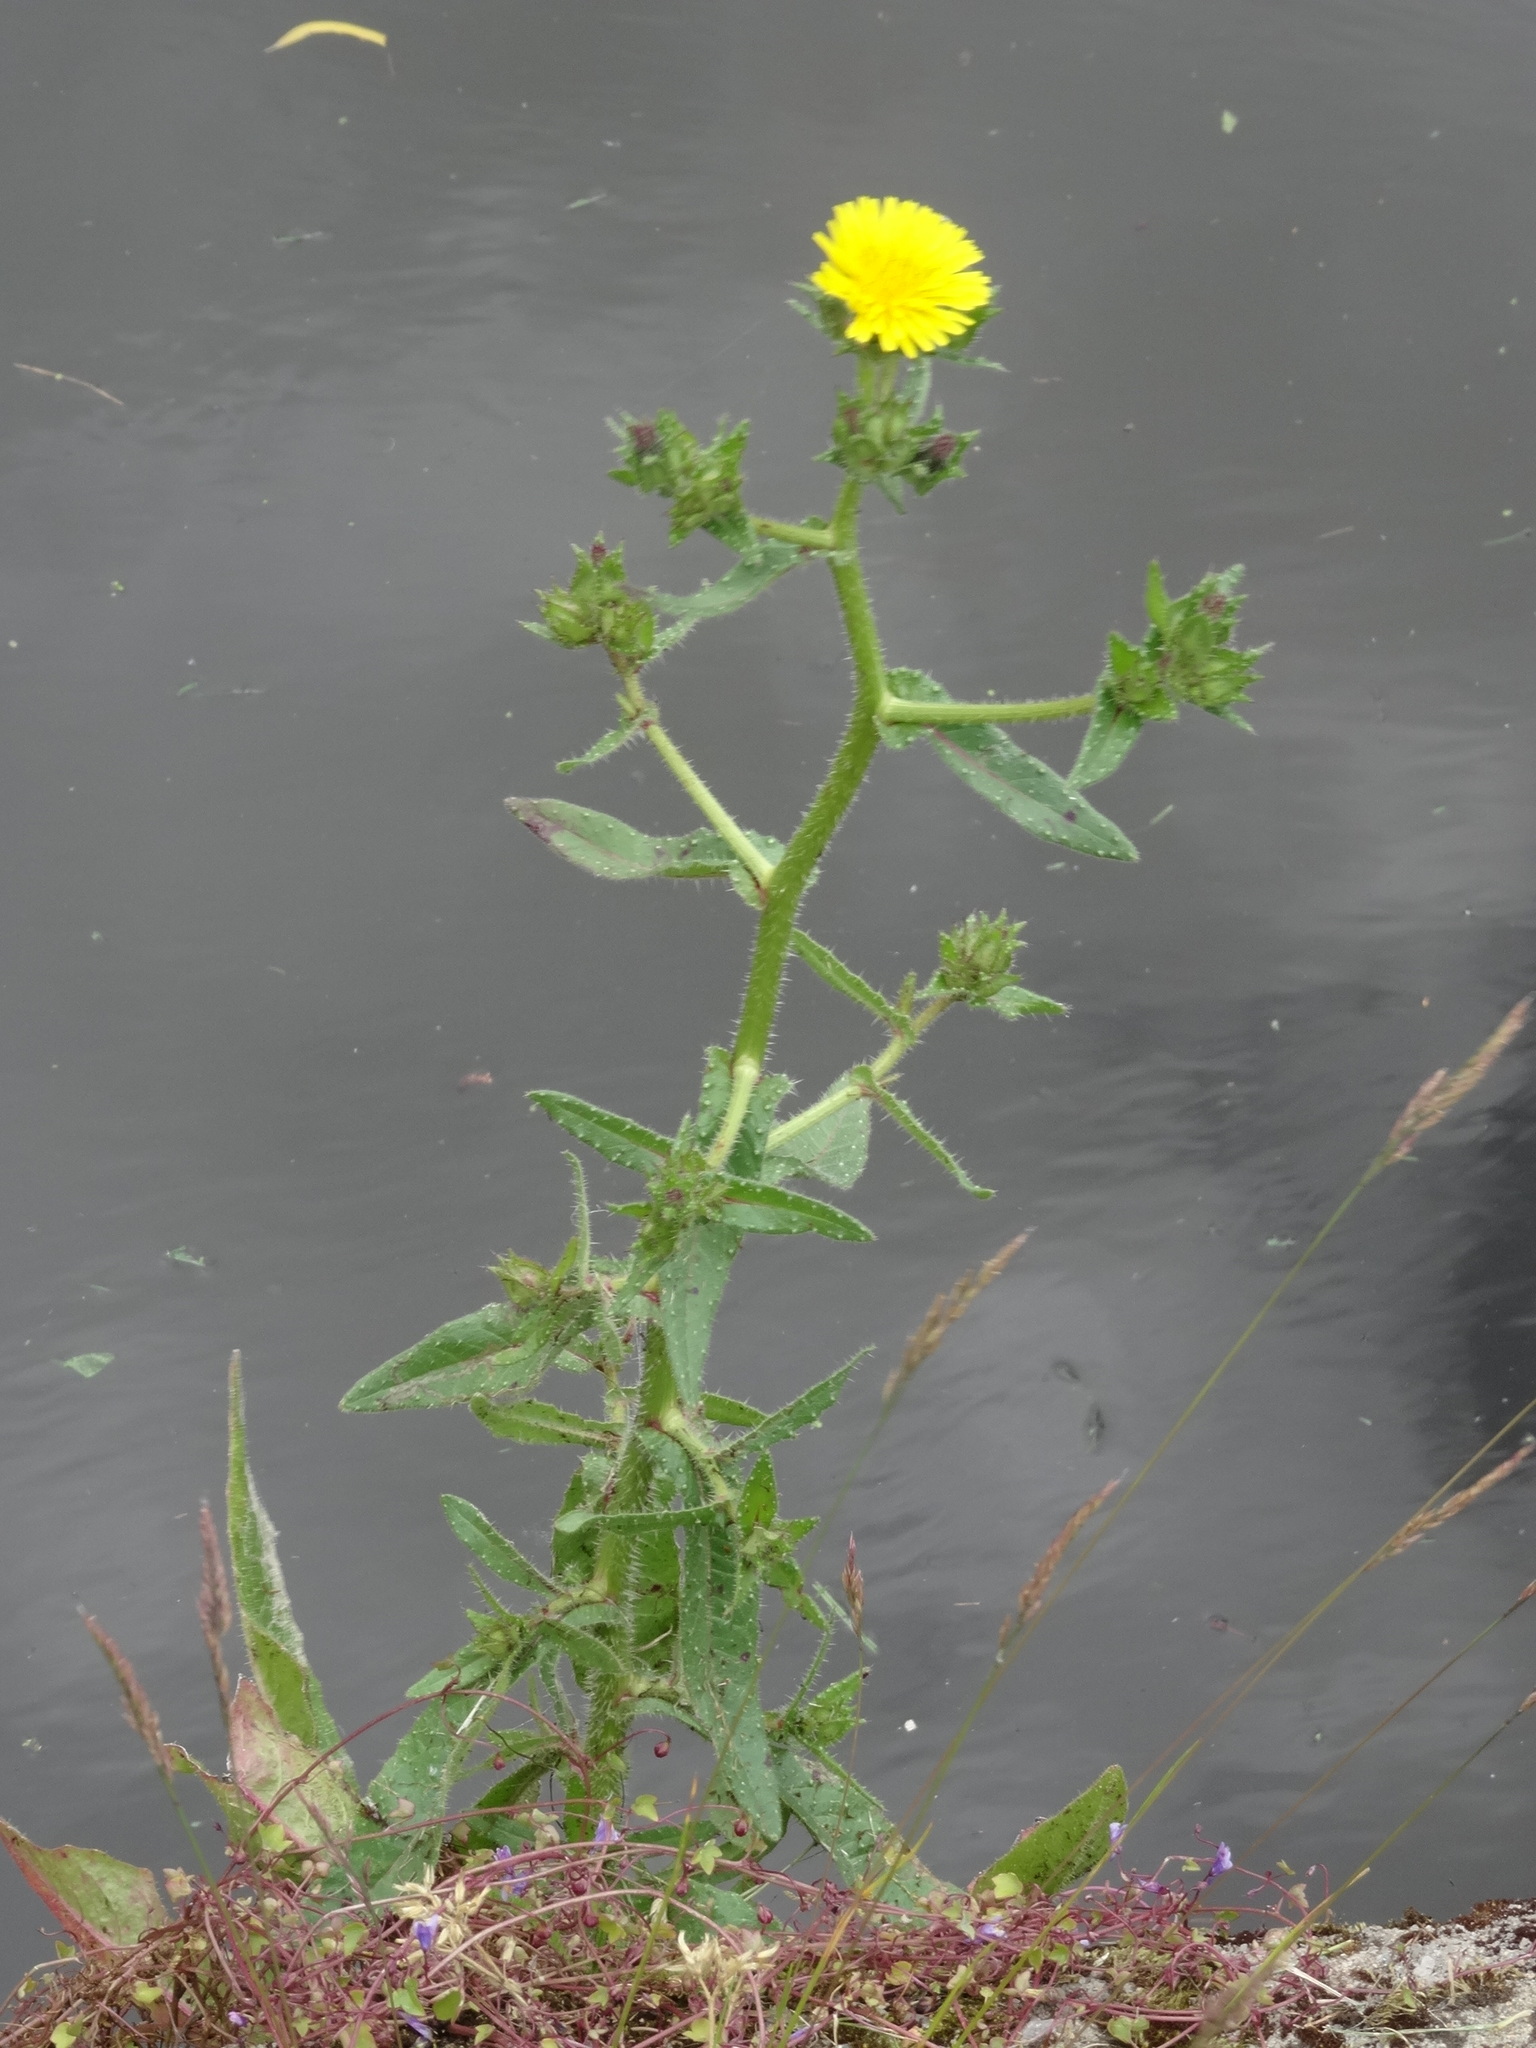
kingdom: Plantae
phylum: Tracheophyta
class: Magnoliopsida
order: Asterales
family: Asteraceae
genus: Helminthotheca
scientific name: Helminthotheca echioides
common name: Ox-tongue
